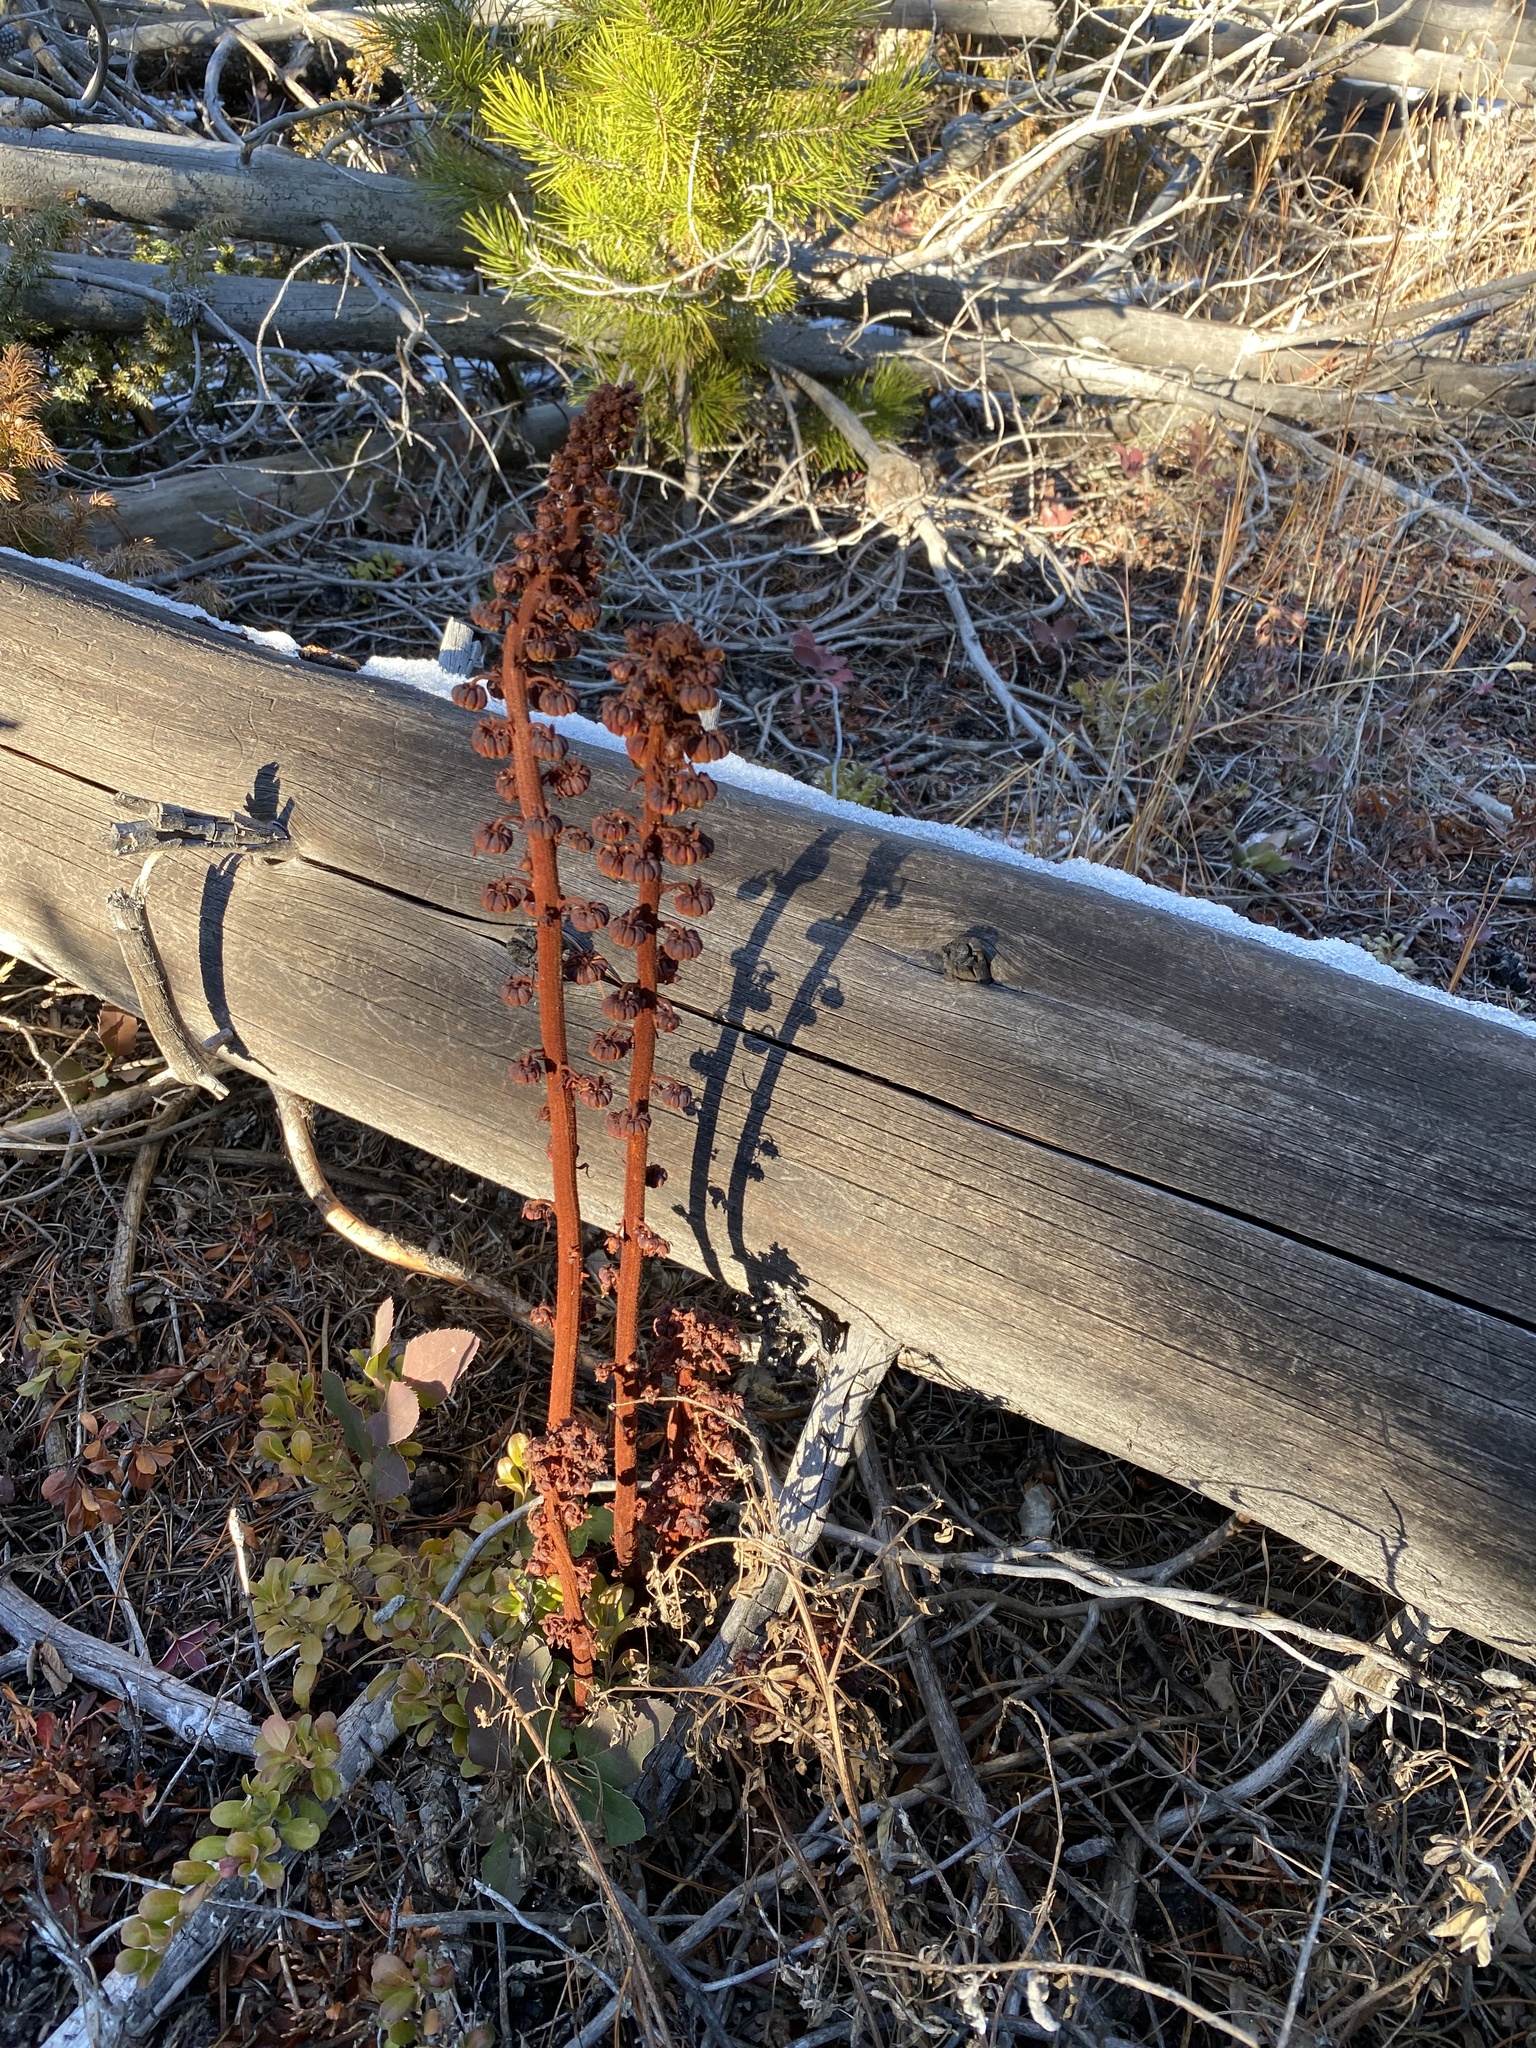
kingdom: Plantae
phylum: Tracheophyta
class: Magnoliopsida
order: Ericales
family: Ericaceae
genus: Pterospora
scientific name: Pterospora andromedea
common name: Giant bird's-nest
